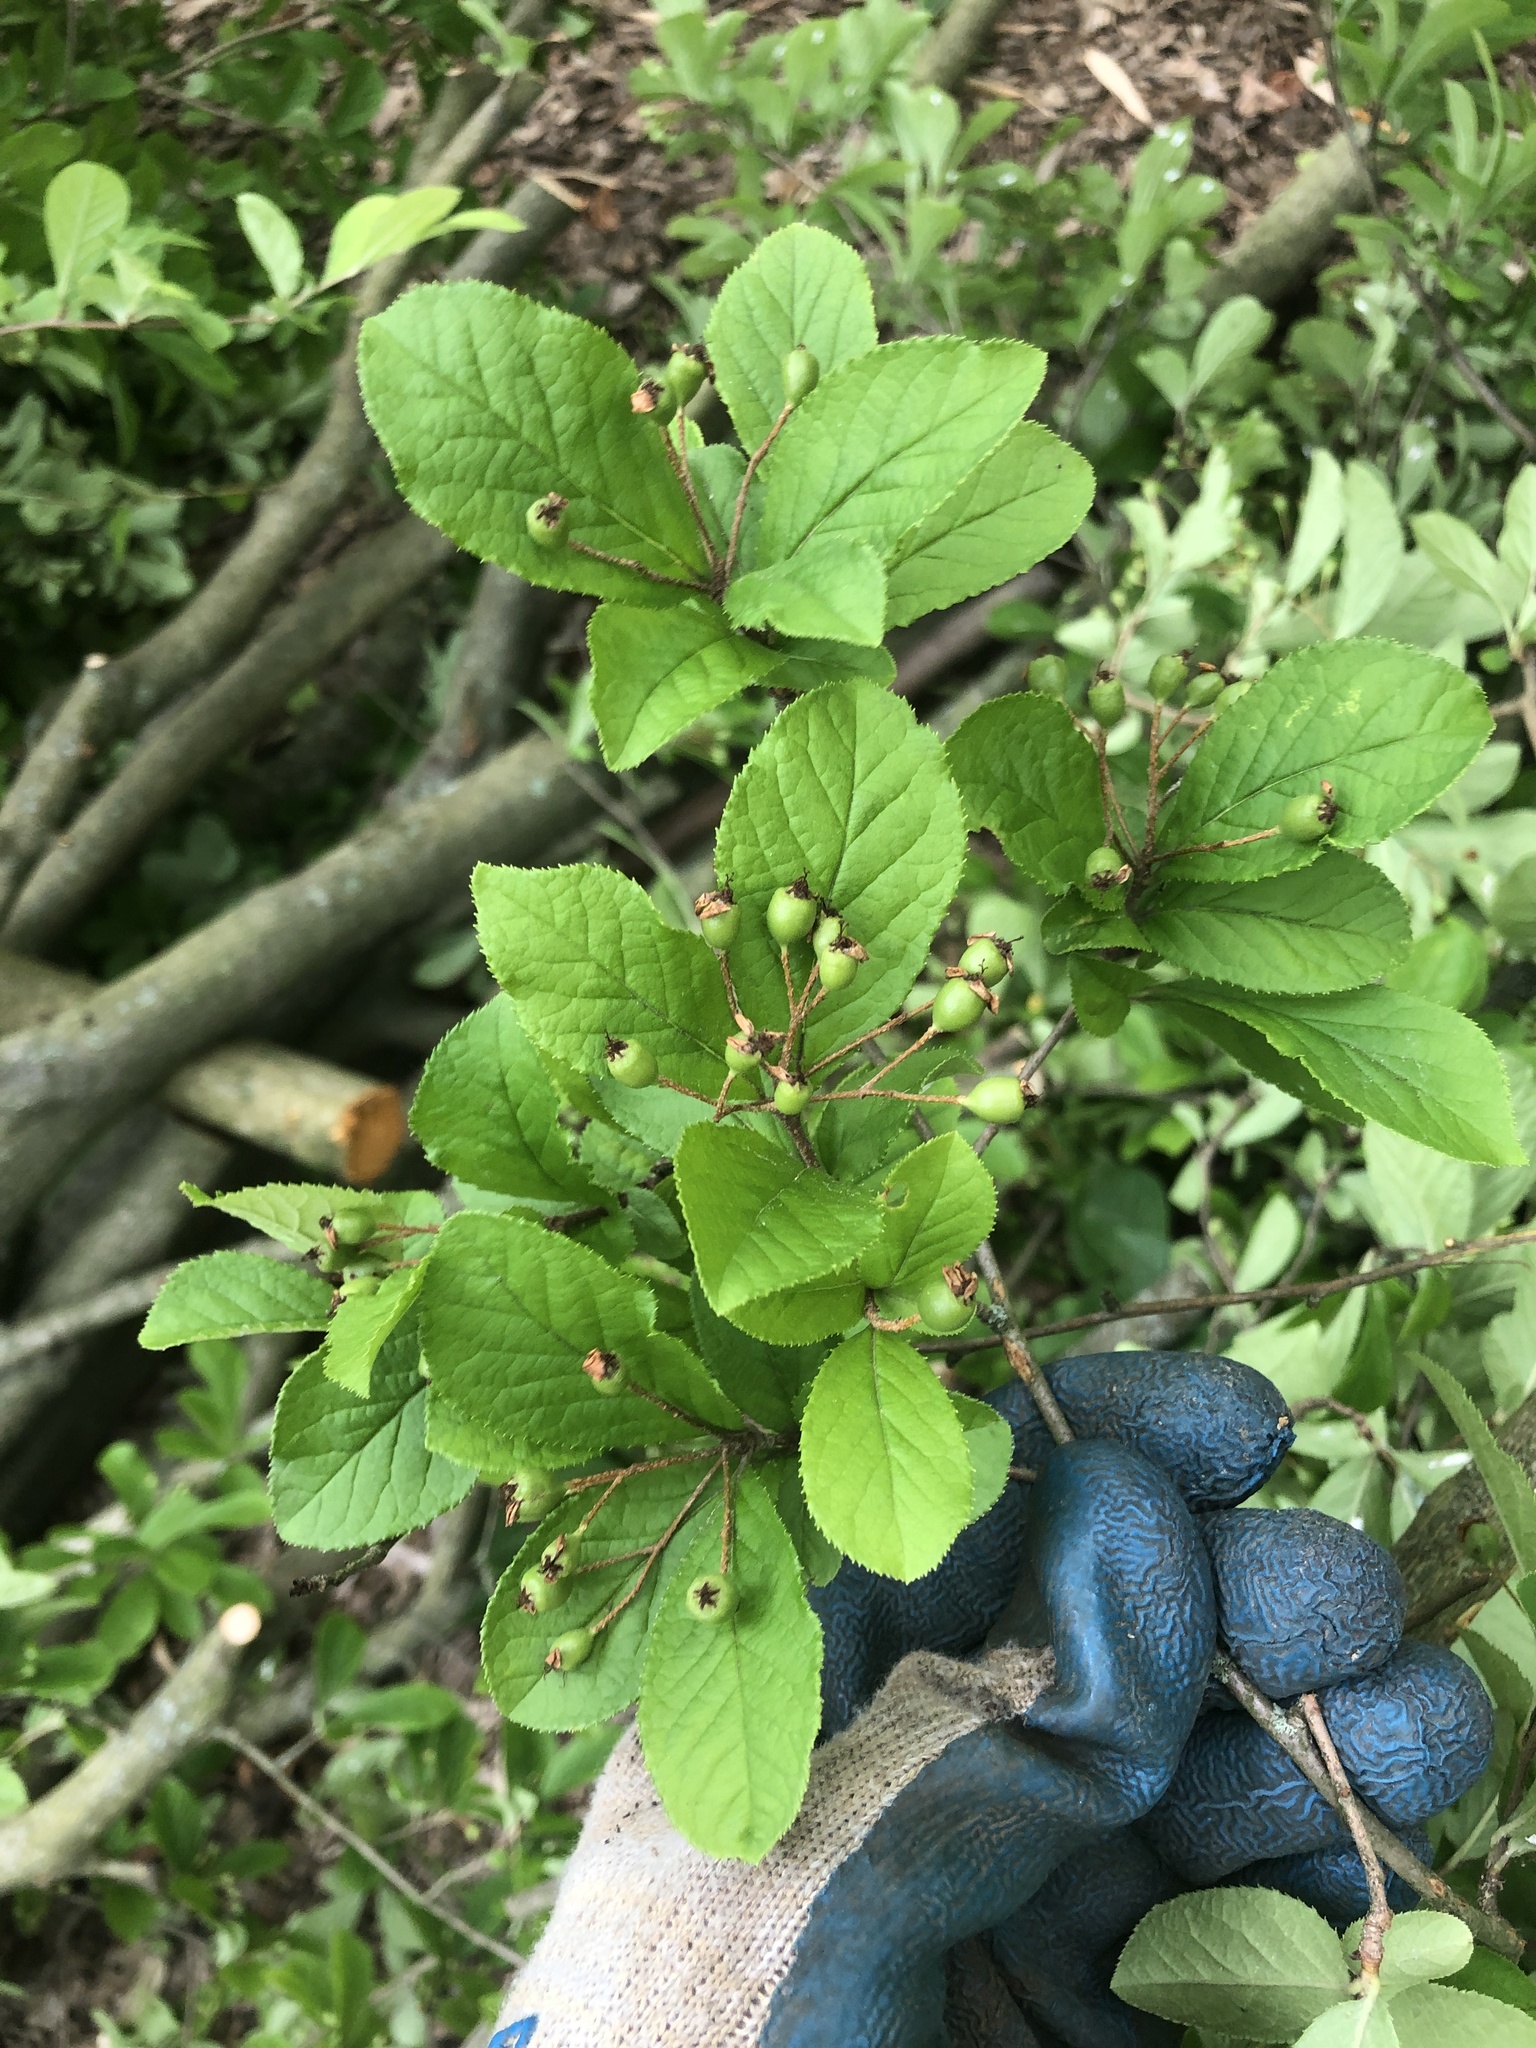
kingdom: Plantae
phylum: Tracheophyta
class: Magnoliopsida
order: Rosales
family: Rosaceae
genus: Pourthiaea
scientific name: Pourthiaea villosa
